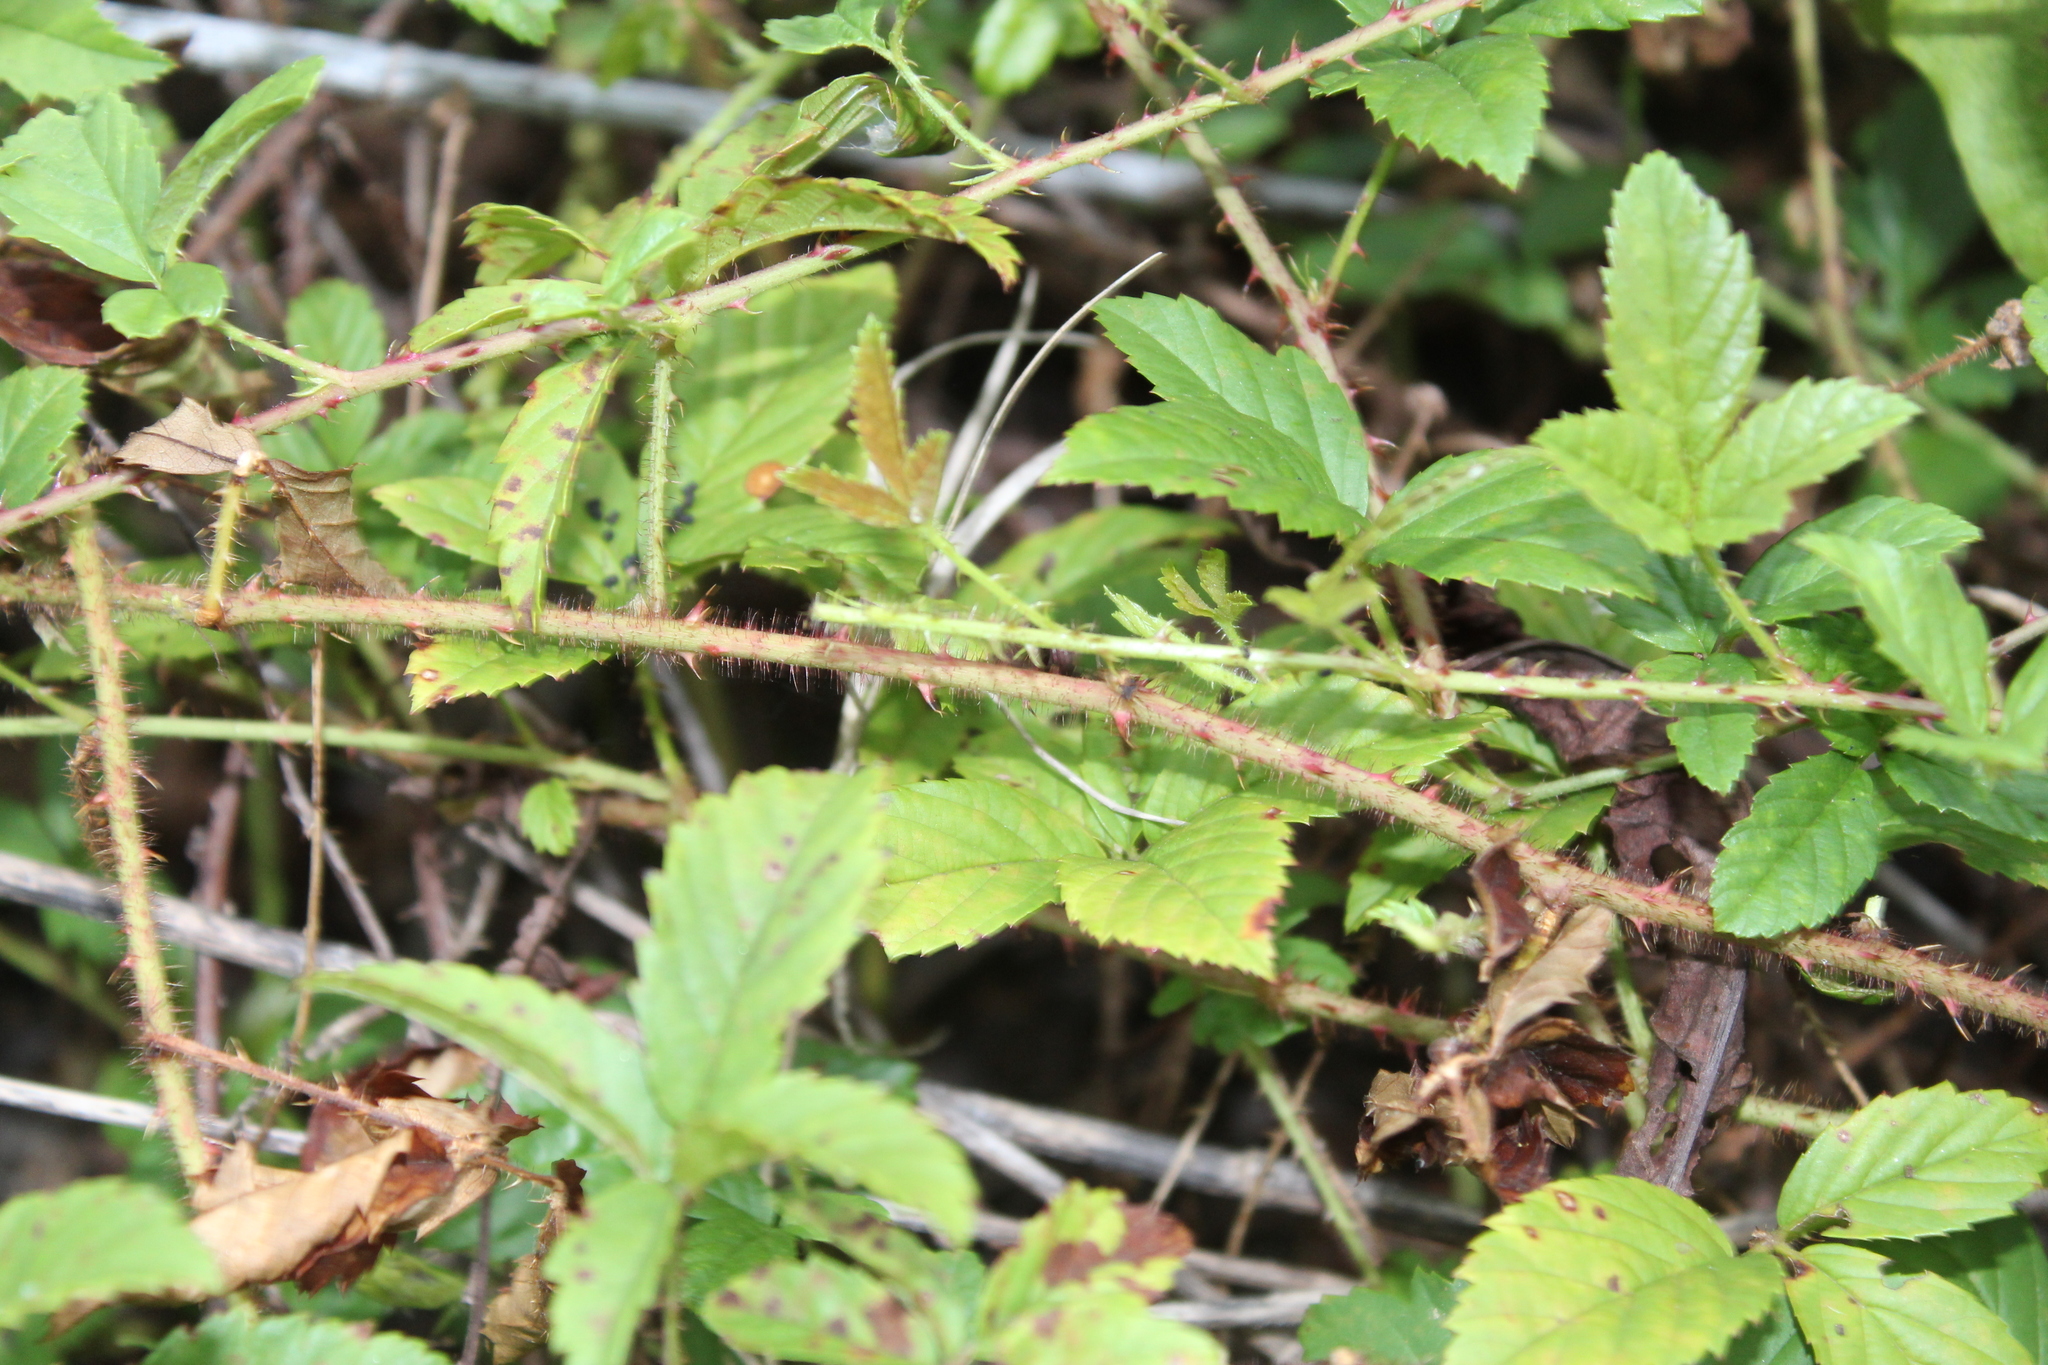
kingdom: Plantae
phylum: Tracheophyta
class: Magnoliopsida
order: Rosales
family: Rosaceae
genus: Rubus
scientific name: Rubus trivialis
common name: Southern dewberry
